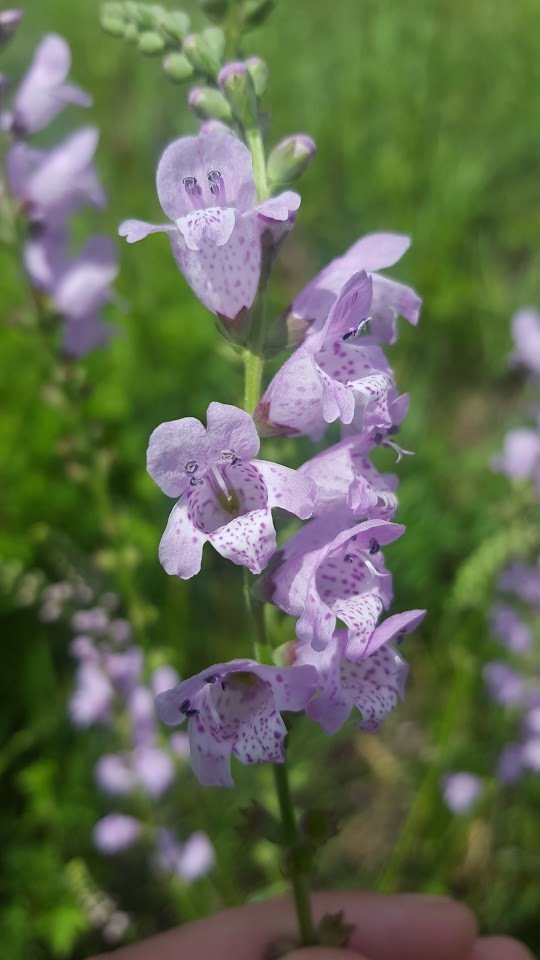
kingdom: Plantae
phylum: Tracheophyta
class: Magnoliopsida
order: Lamiales
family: Lamiaceae
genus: Physostegia
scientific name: Physostegia intermedia
